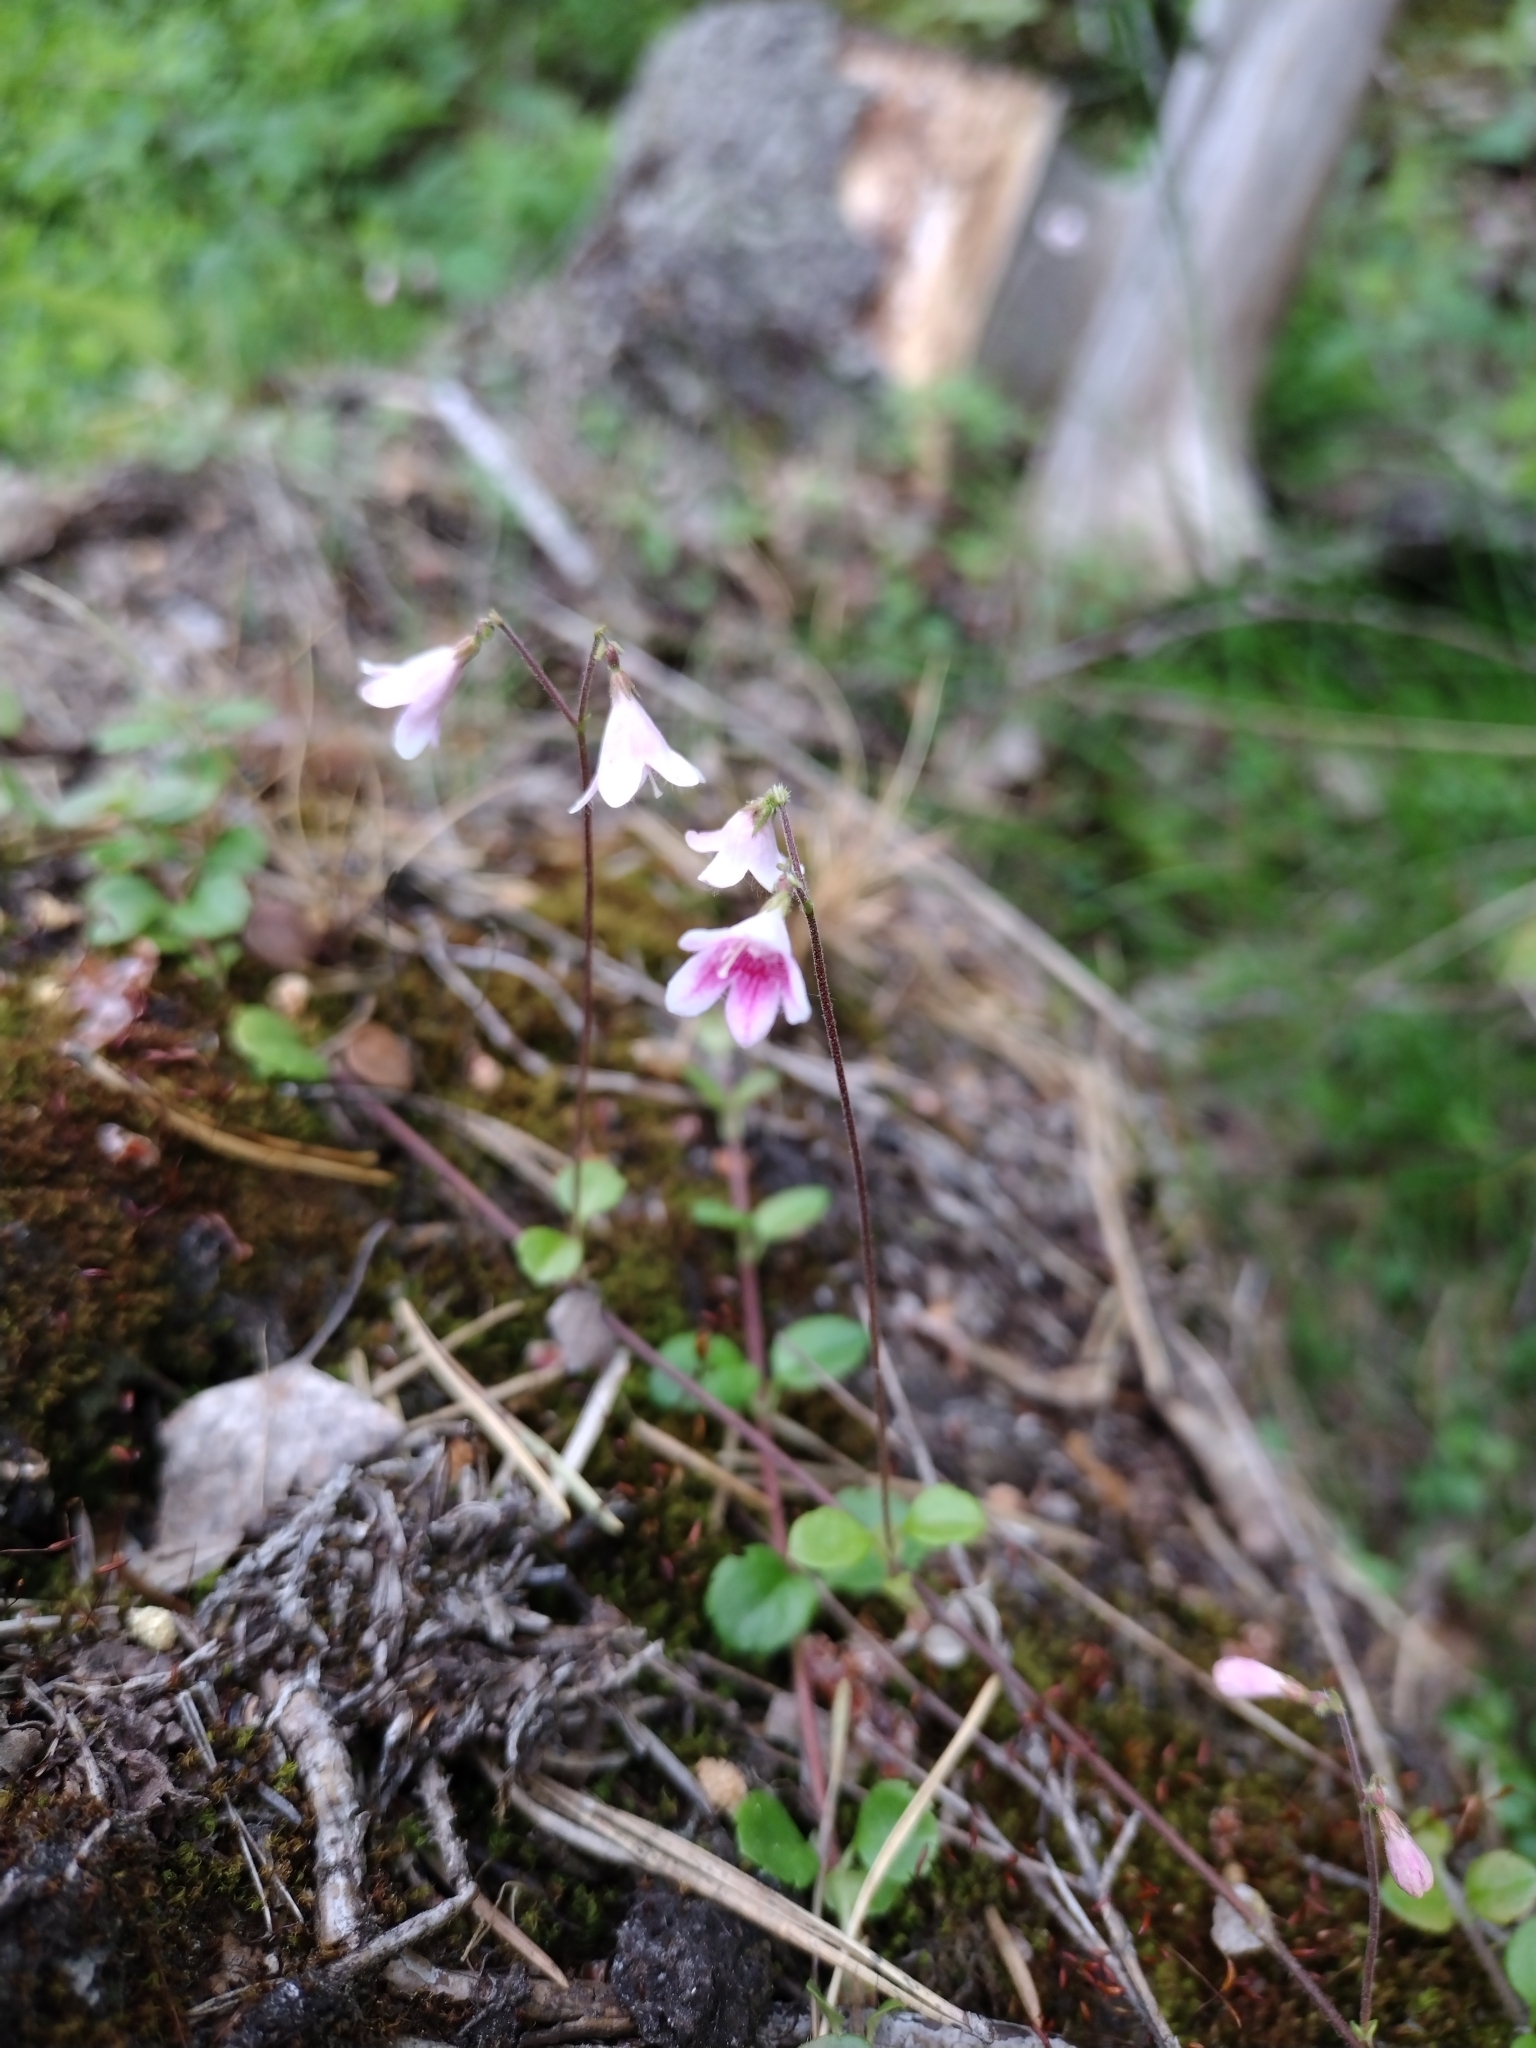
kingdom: Plantae
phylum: Tracheophyta
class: Magnoliopsida
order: Dipsacales
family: Caprifoliaceae
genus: Linnaea
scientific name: Linnaea borealis
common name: Twinflower
